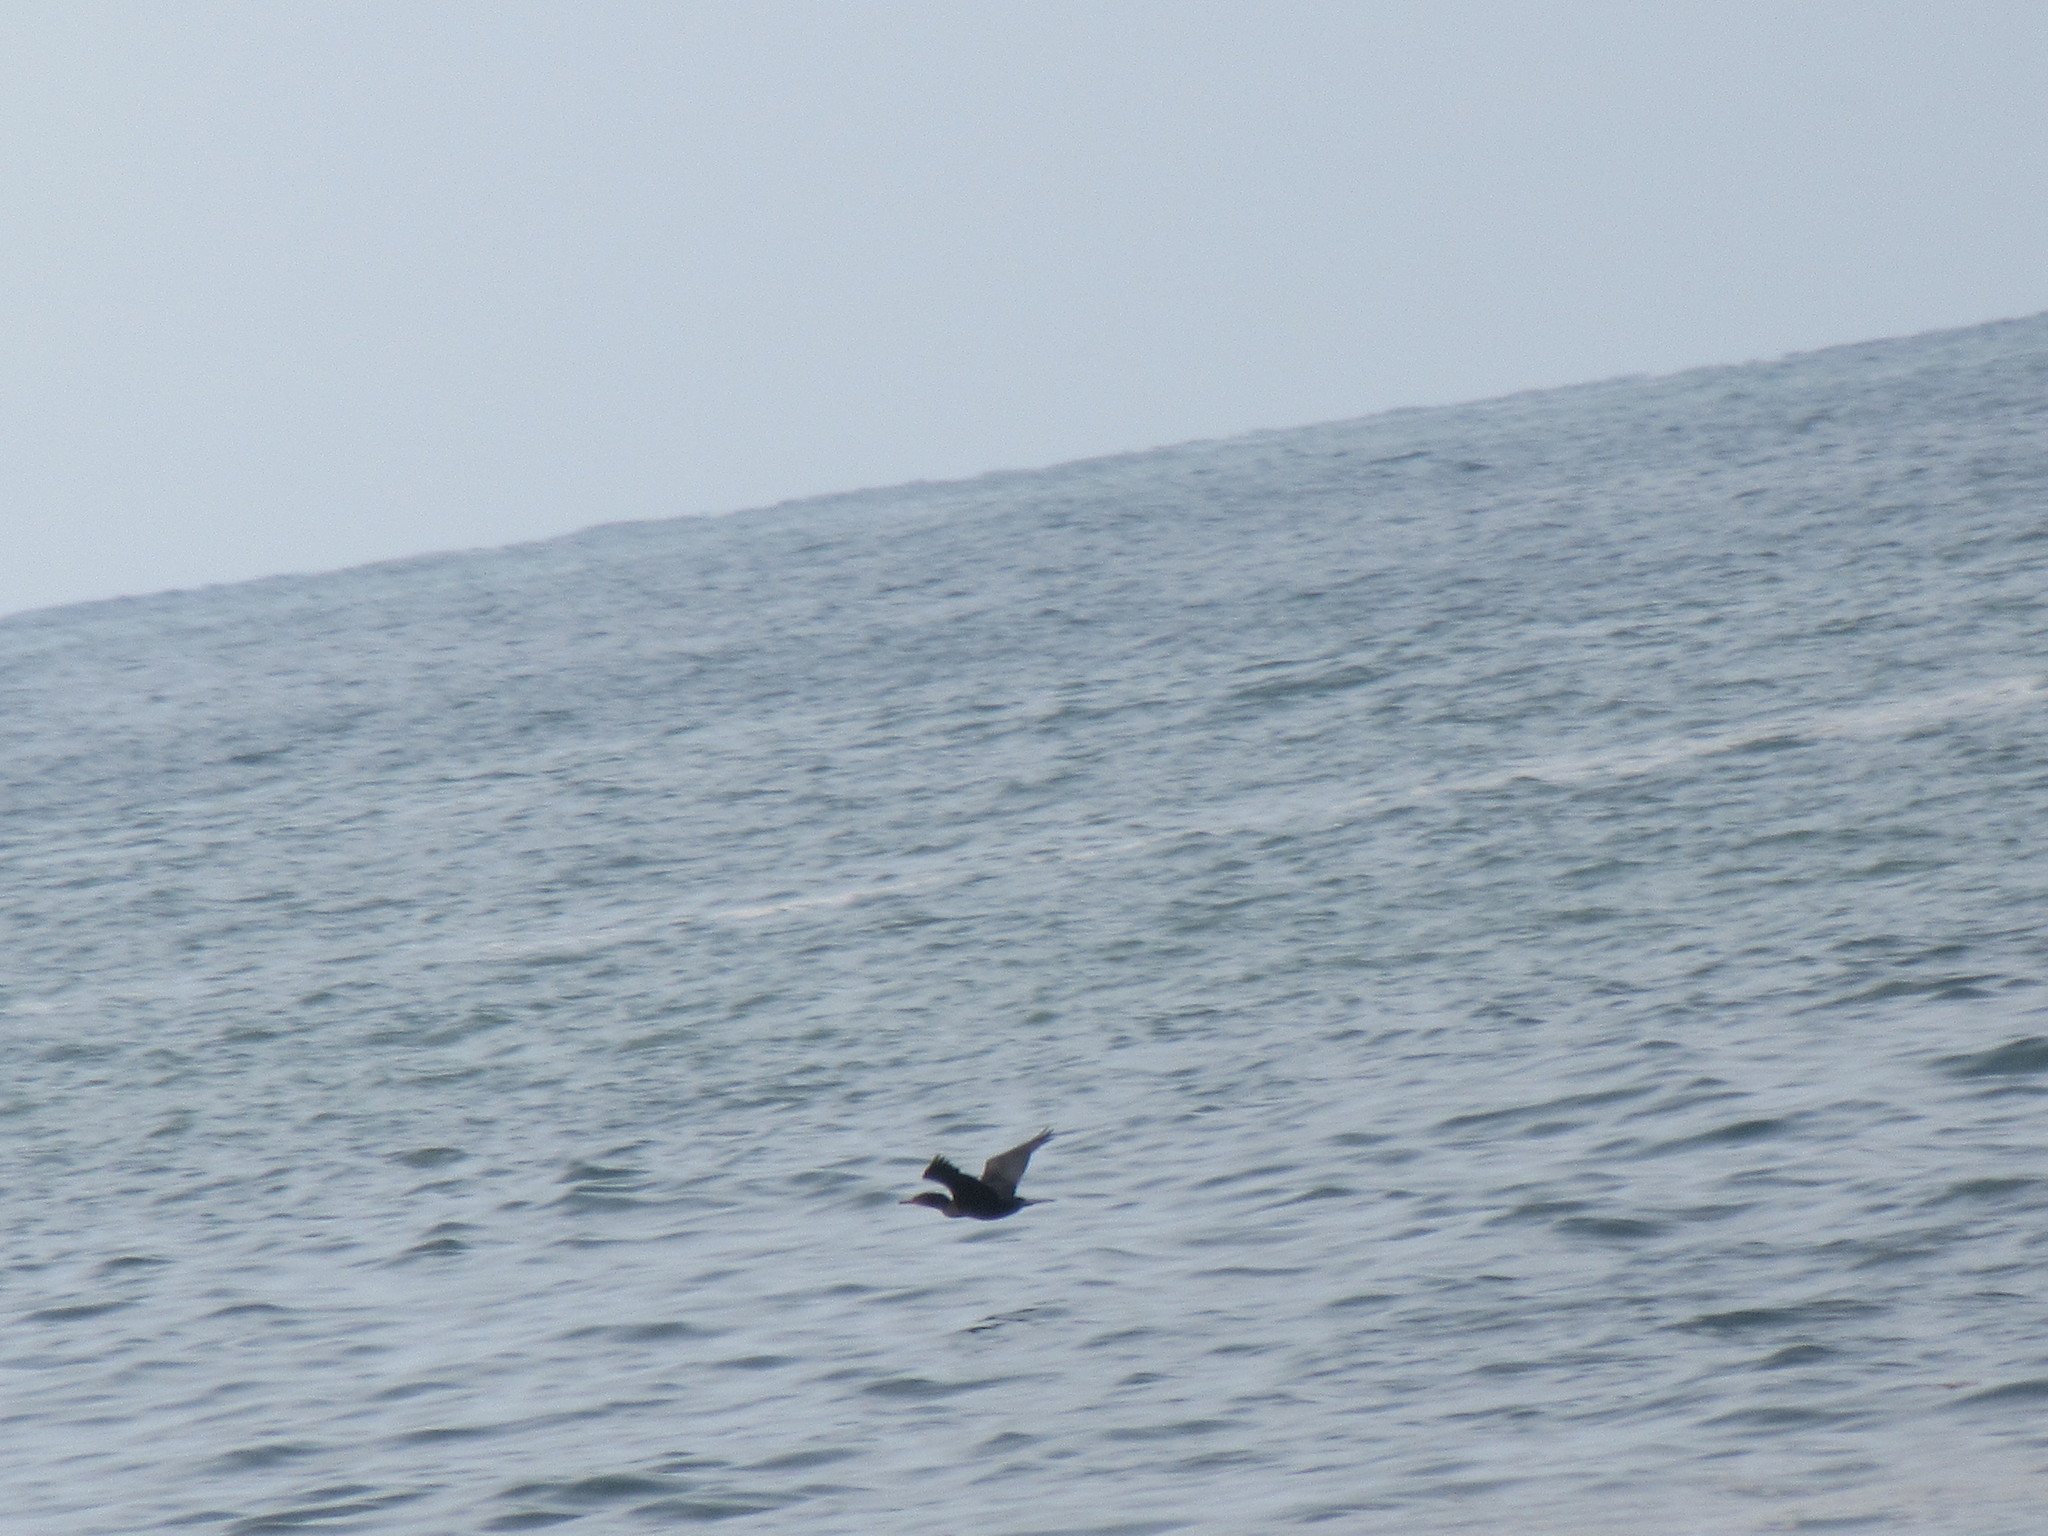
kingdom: Animalia
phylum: Chordata
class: Aves
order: Suliformes
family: Phalacrocoracidae
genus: Phalacrocorax
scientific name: Phalacrocorax auritus
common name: Double-crested cormorant
